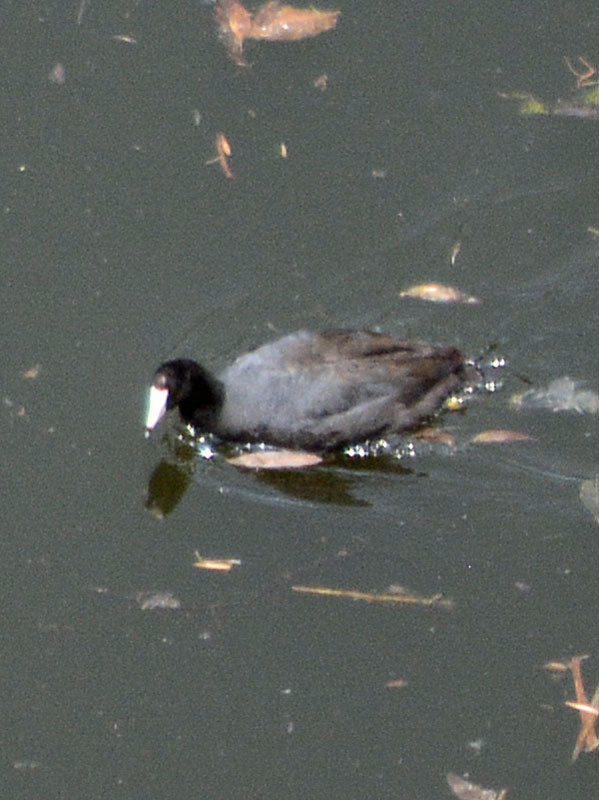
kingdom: Animalia
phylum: Chordata
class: Aves
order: Gruiformes
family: Rallidae
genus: Fulica
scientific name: Fulica americana
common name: American coot
